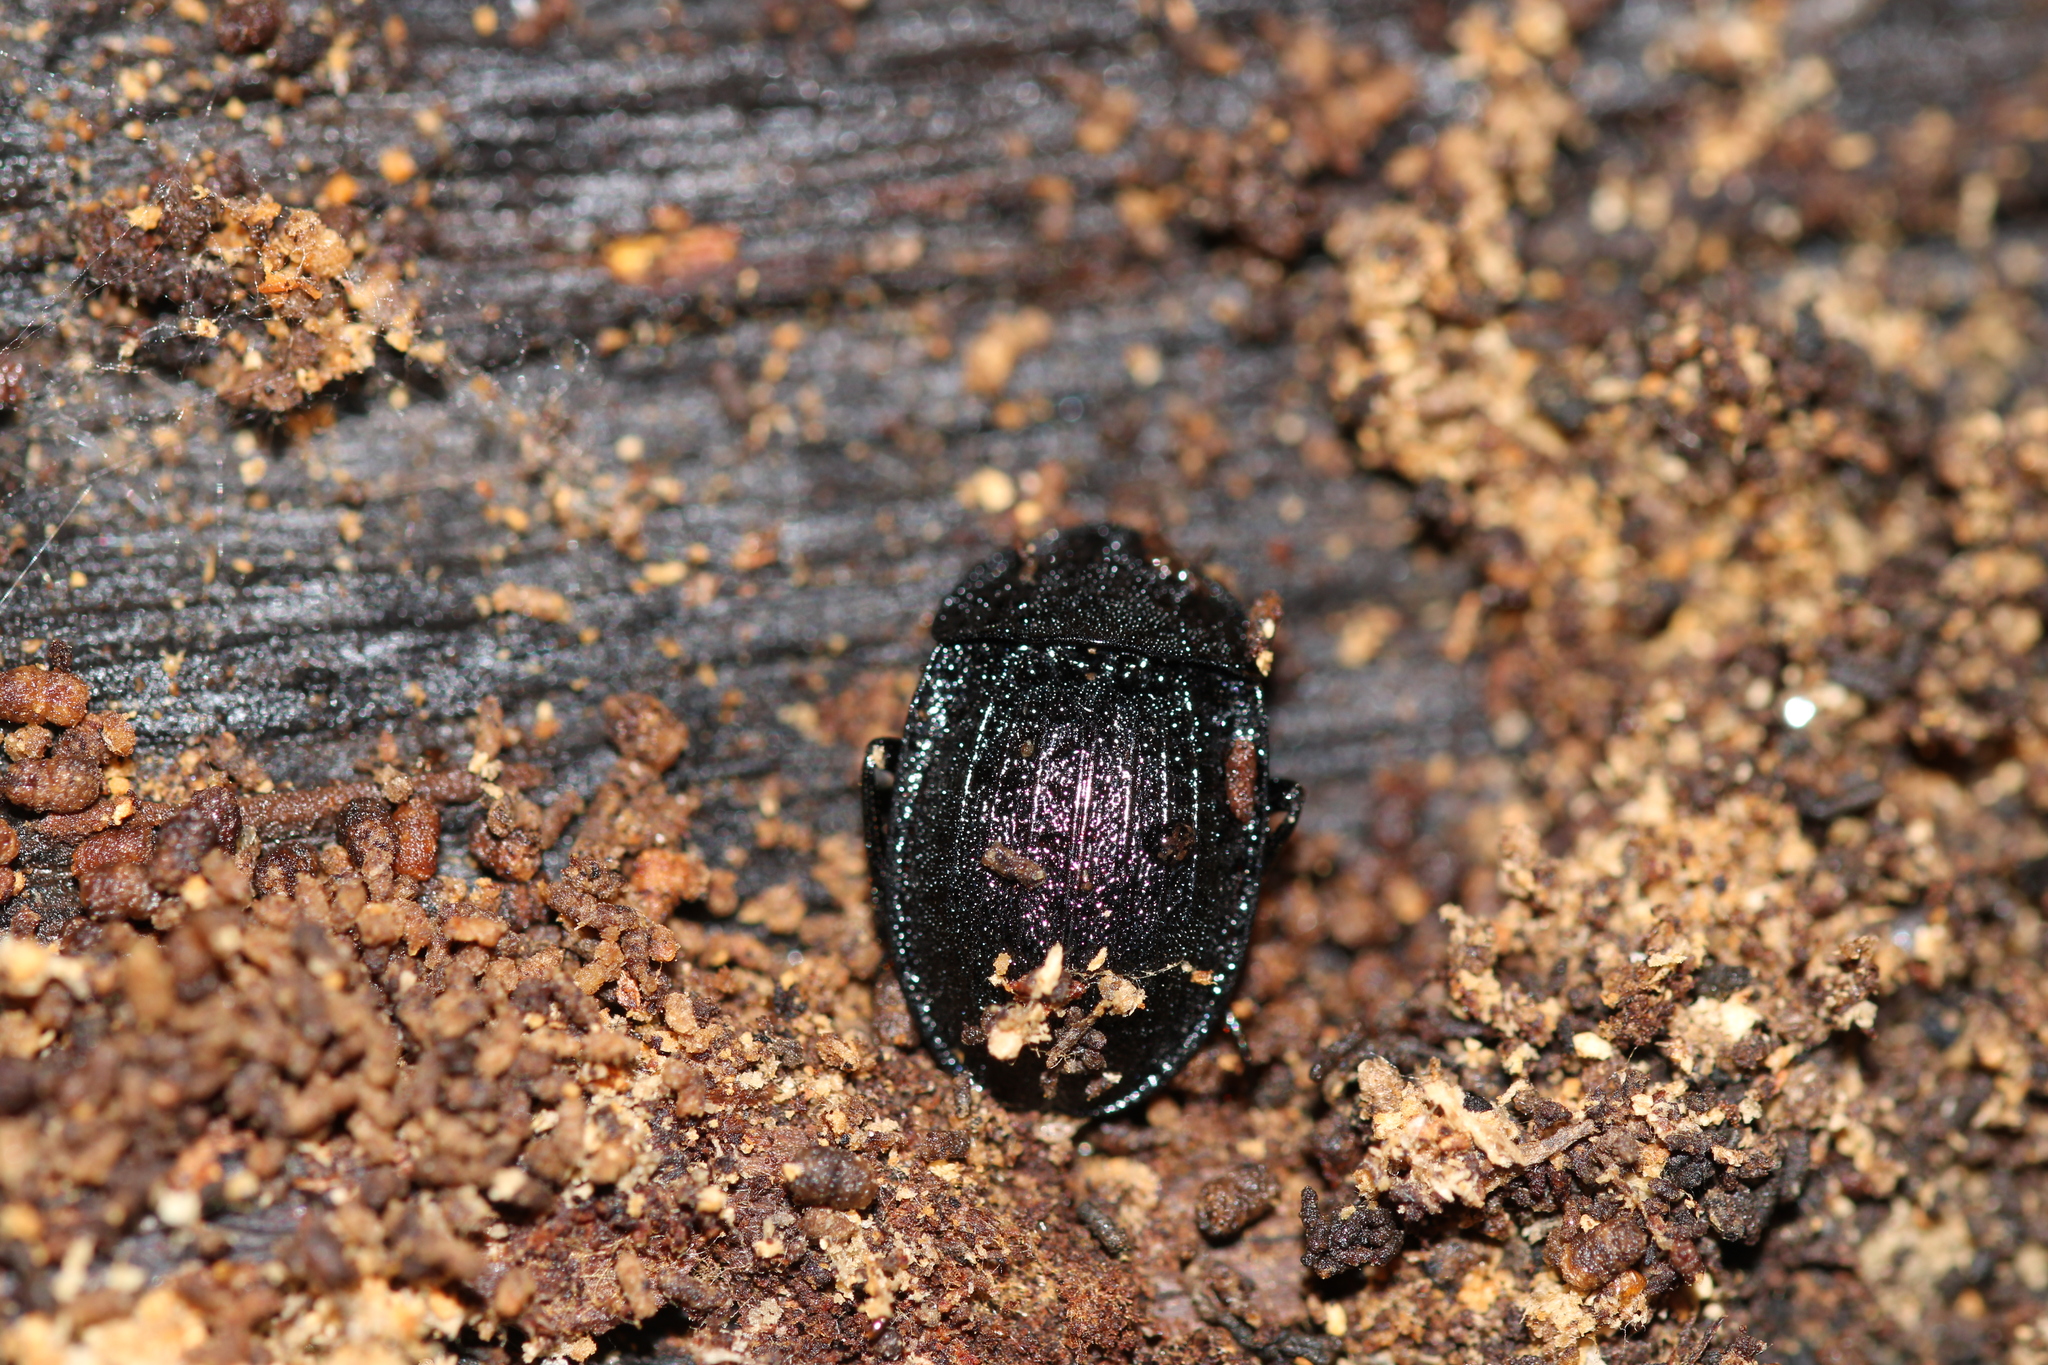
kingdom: Animalia
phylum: Arthropoda
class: Insecta
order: Coleoptera
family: Staphylinidae
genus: Silpha
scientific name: Silpha atrata
